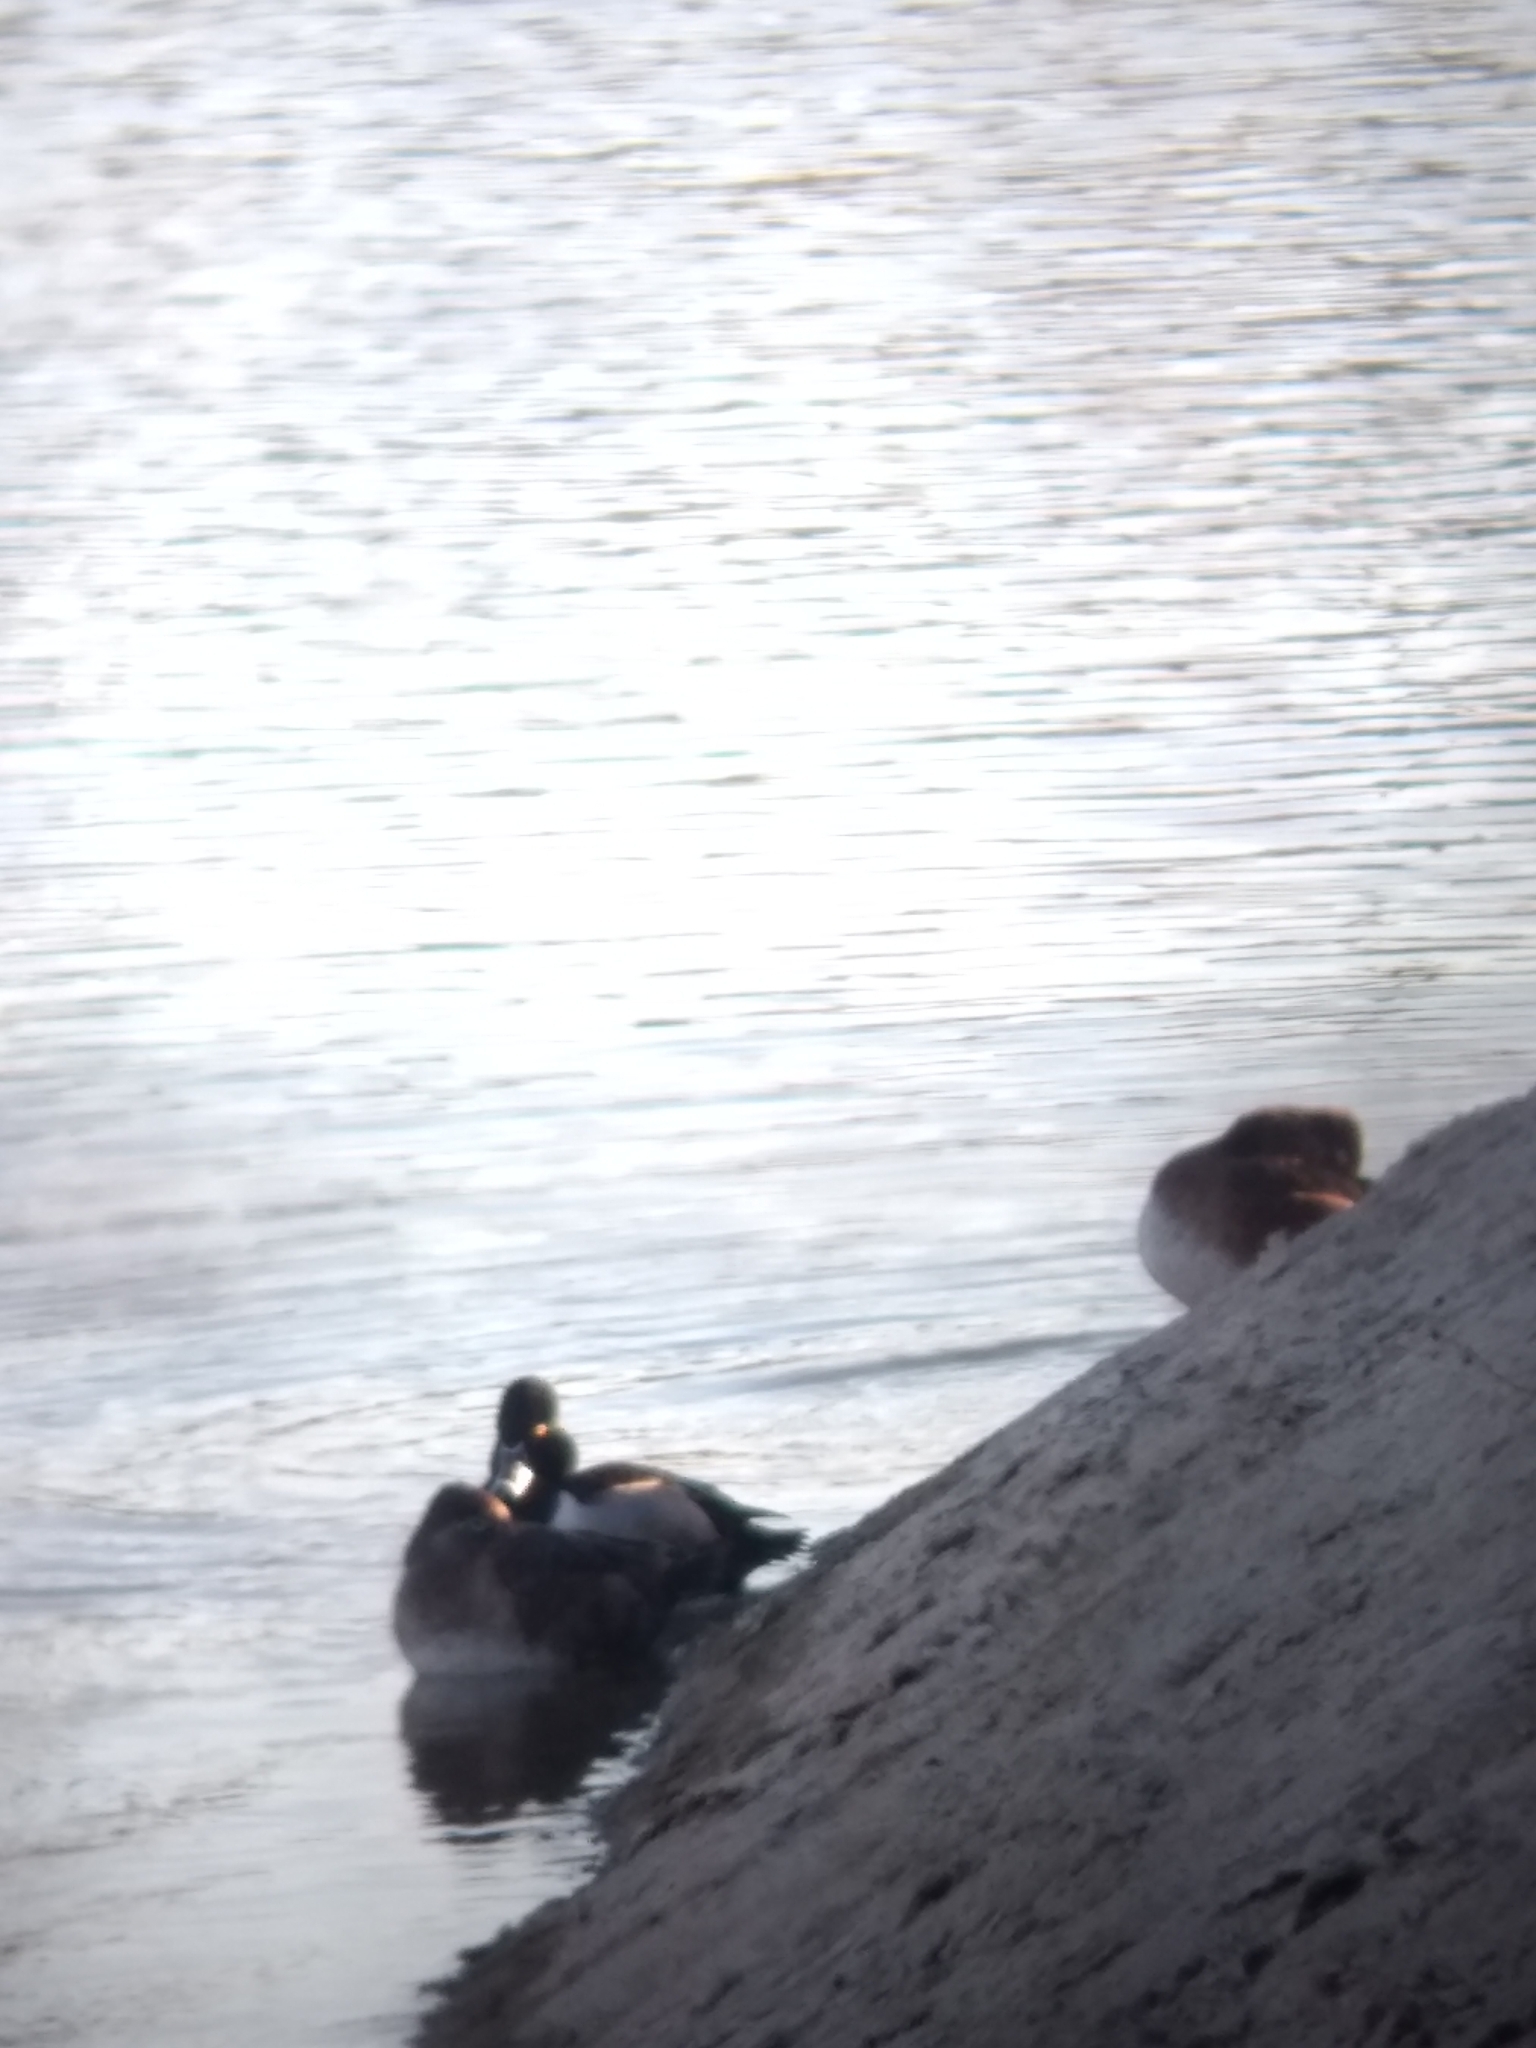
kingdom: Animalia
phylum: Chordata
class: Aves
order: Anseriformes
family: Anatidae
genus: Aythya
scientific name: Aythya collaris
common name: Ring-necked duck
